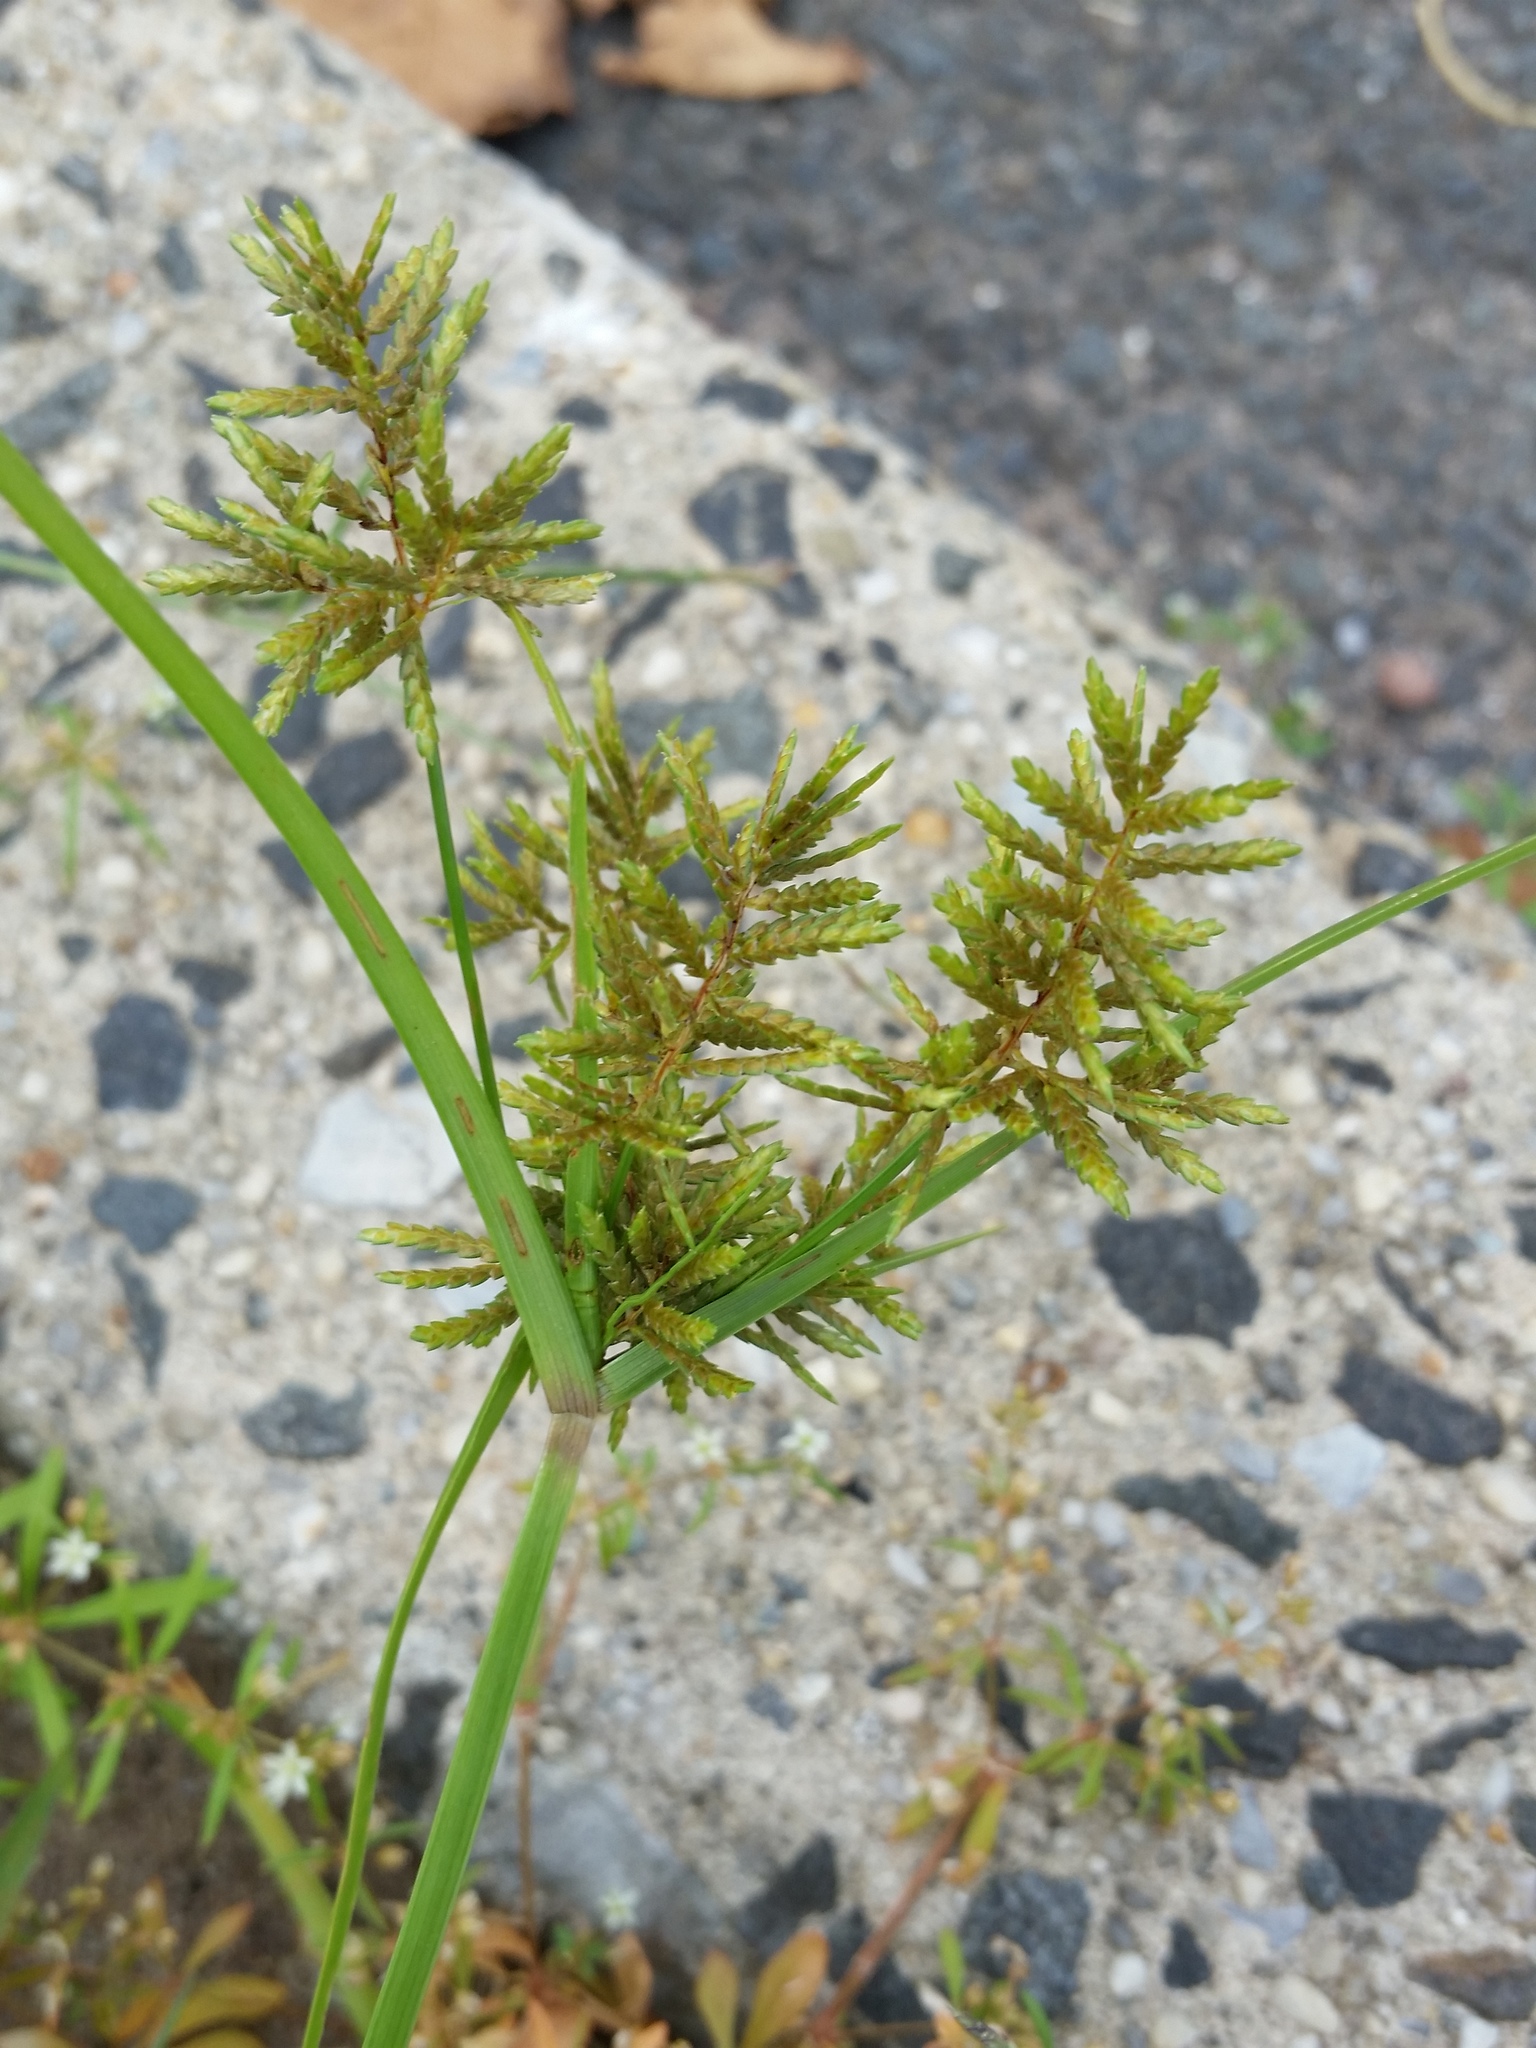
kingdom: Plantae
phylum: Tracheophyta
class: Liliopsida
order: Poales
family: Cyperaceae
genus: Cyperus
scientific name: Cyperus microiria
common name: Asian flatsedge
